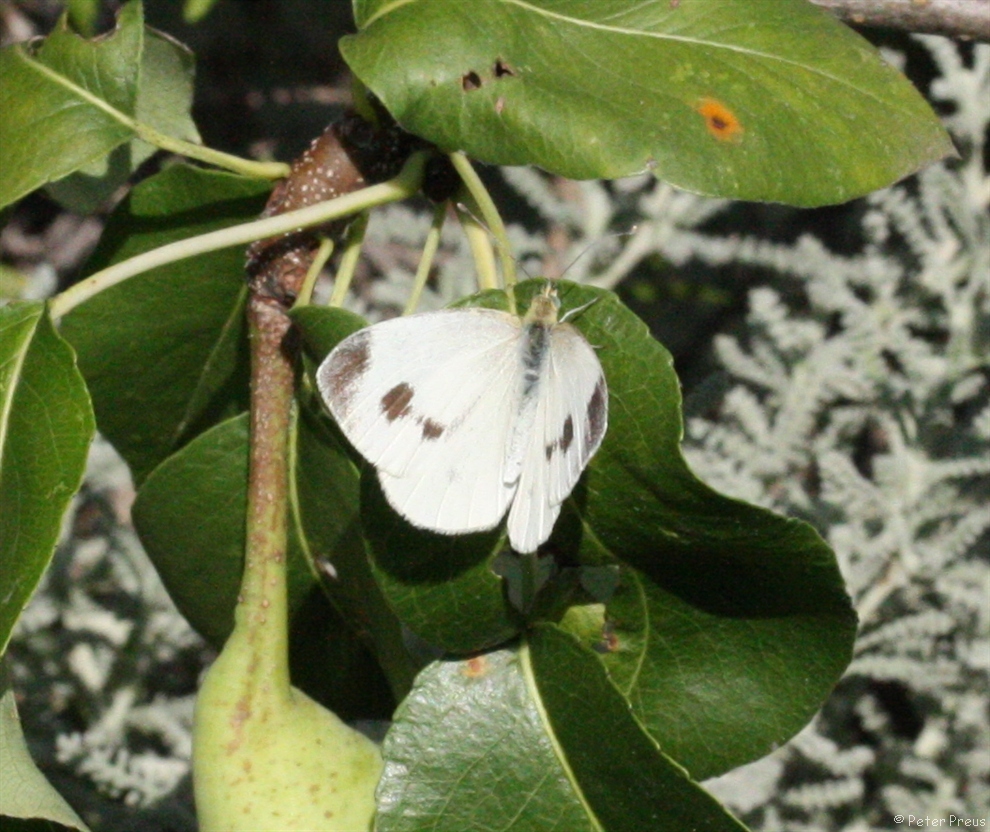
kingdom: Animalia
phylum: Arthropoda
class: Insecta
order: Lepidoptera
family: Pieridae
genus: Pieris
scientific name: Pieris mannii
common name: Southern small white
